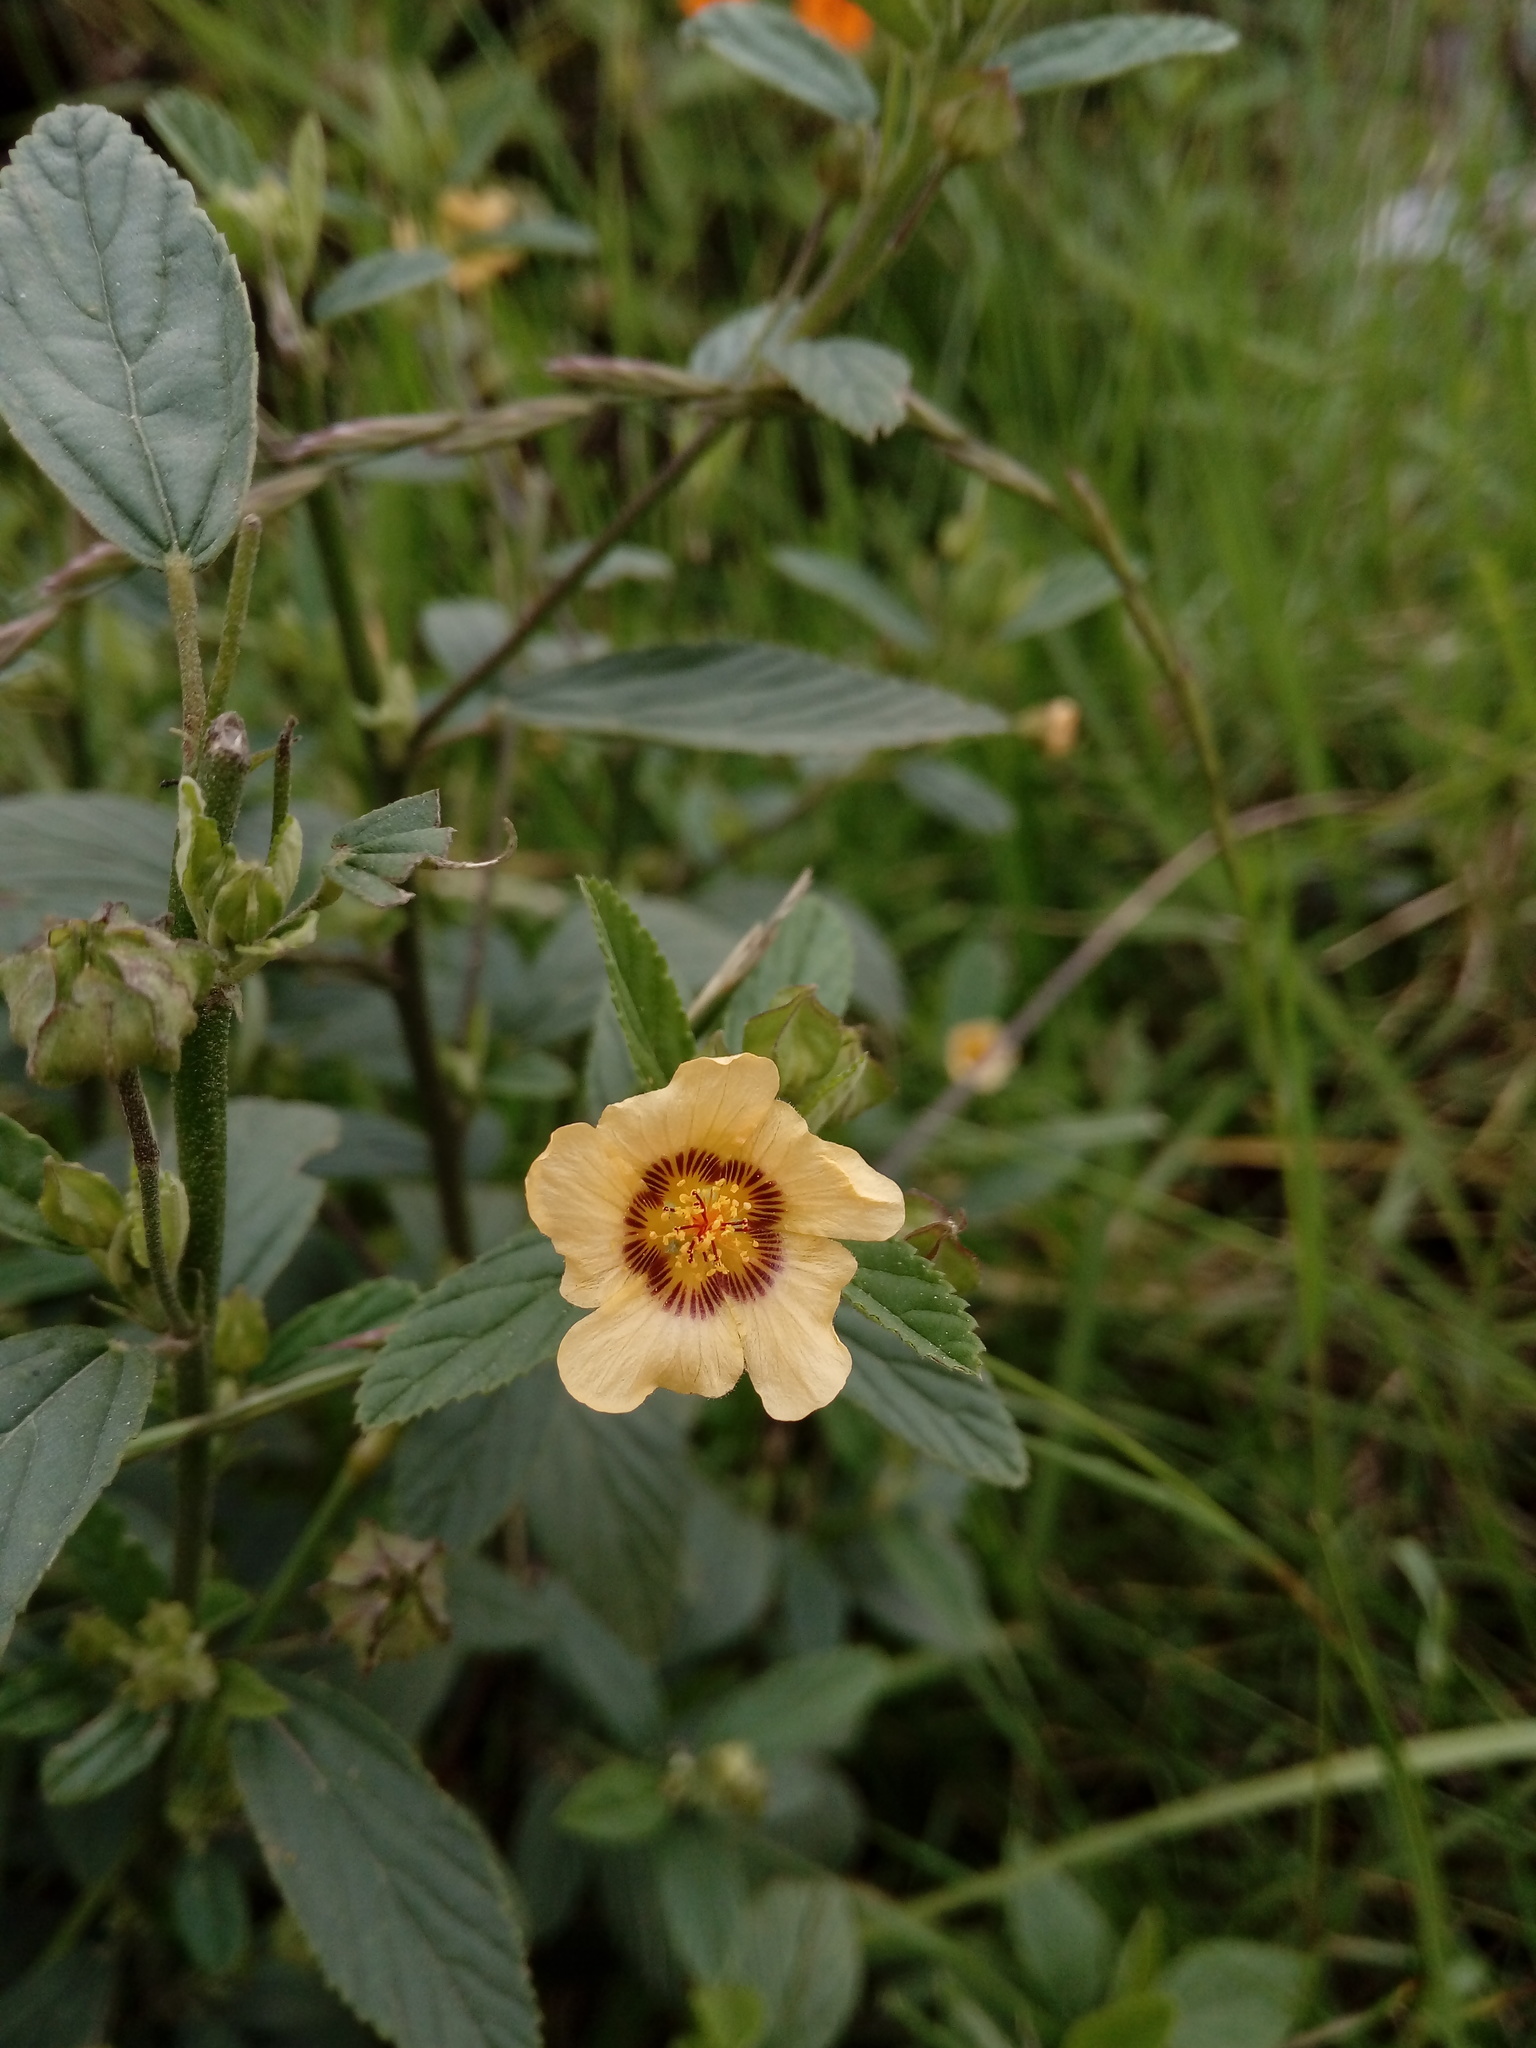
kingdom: Plantae
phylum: Tracheophyta
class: Magnoliopsida
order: Malvales
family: Malvaceae
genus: Sida
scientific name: Sida rhombifolia
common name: Queensland-hemp
